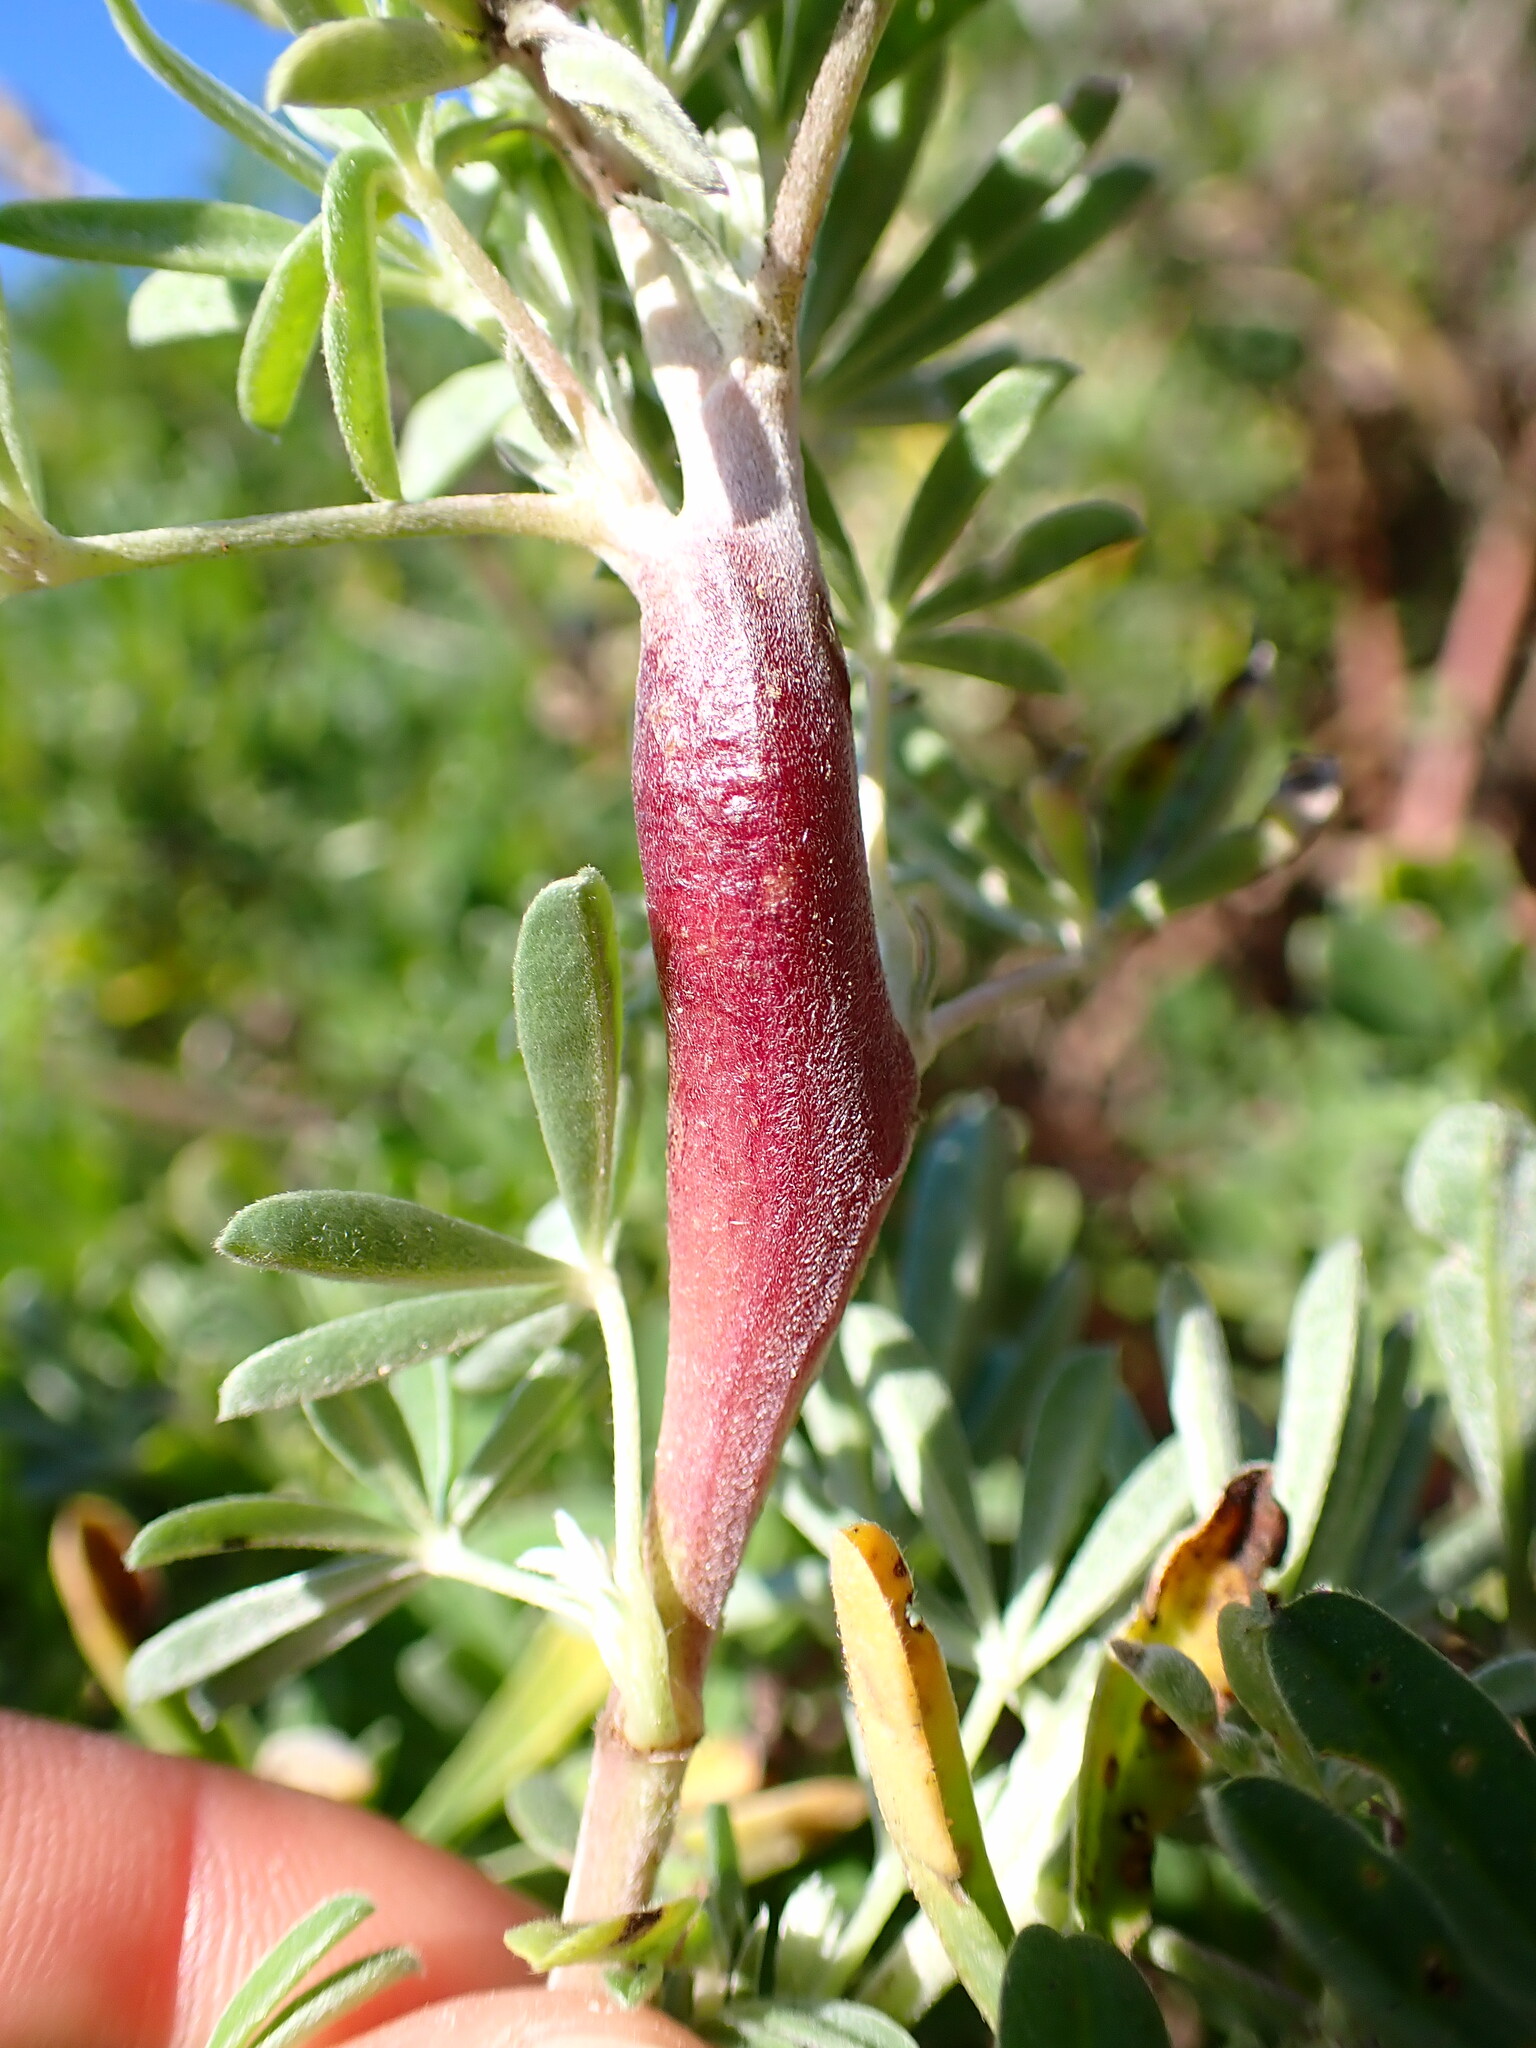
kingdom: Animalia
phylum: Arthropoda
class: Insecta
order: Diptera
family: Cecidomyiidae
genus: Neolasioptera
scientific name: Neolasioptera lupini
